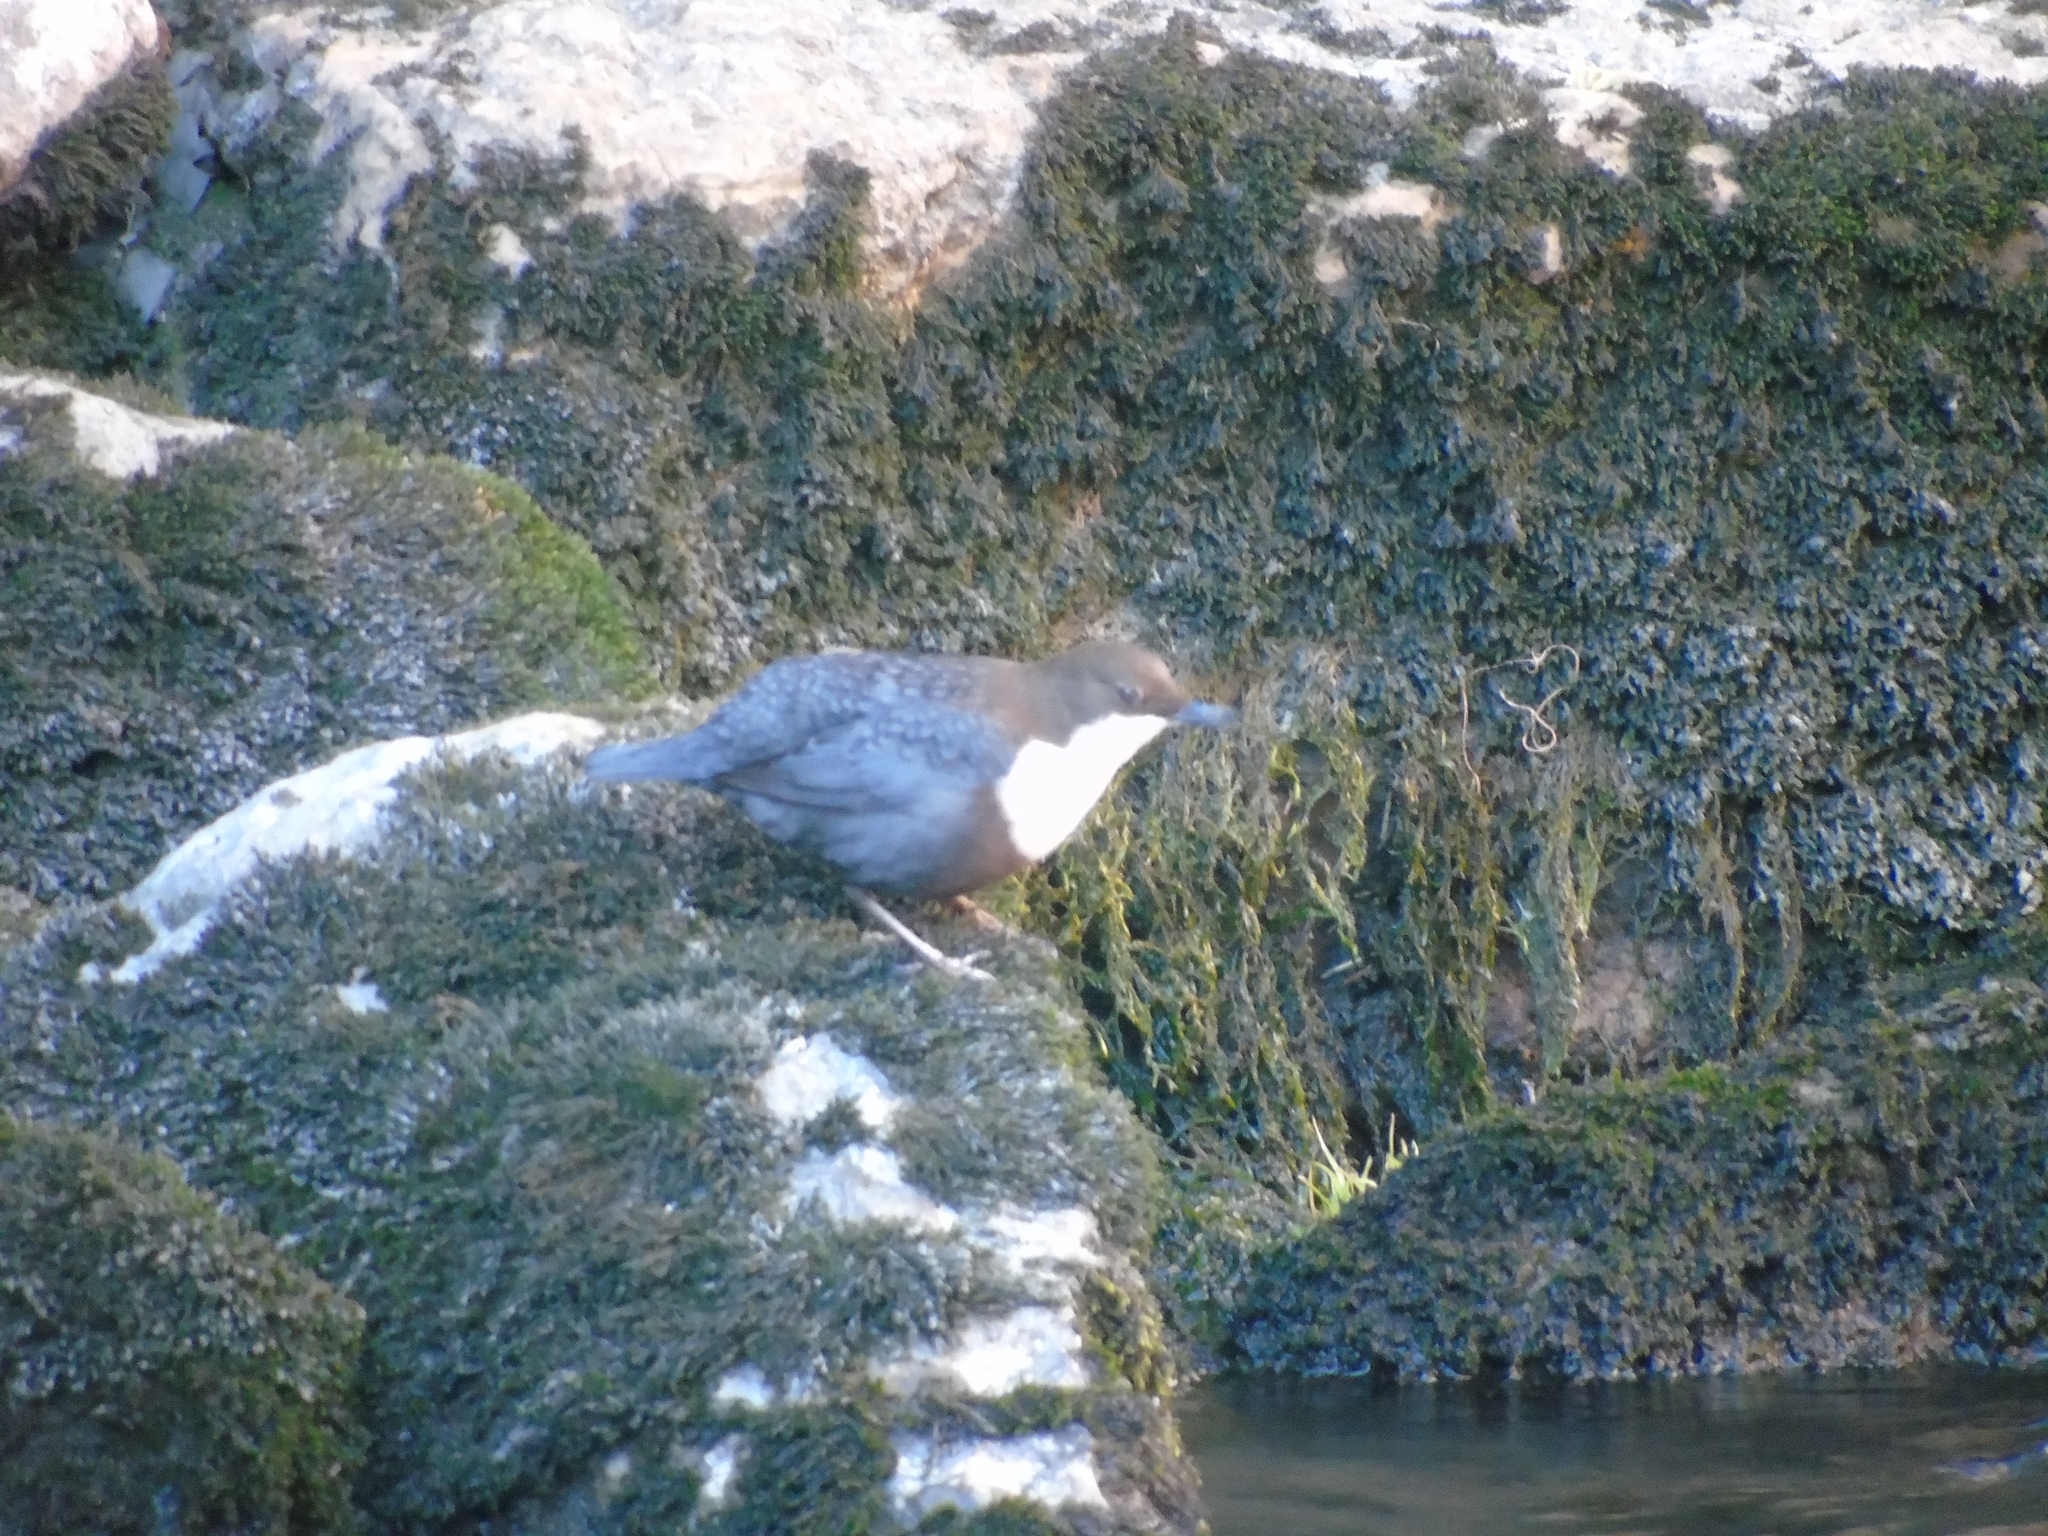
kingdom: Animalia
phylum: Chordata
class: Aves
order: Passeriformes
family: Cinclidae
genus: Cinclus
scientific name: Cinclus cinclus
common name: White-throated dipper
